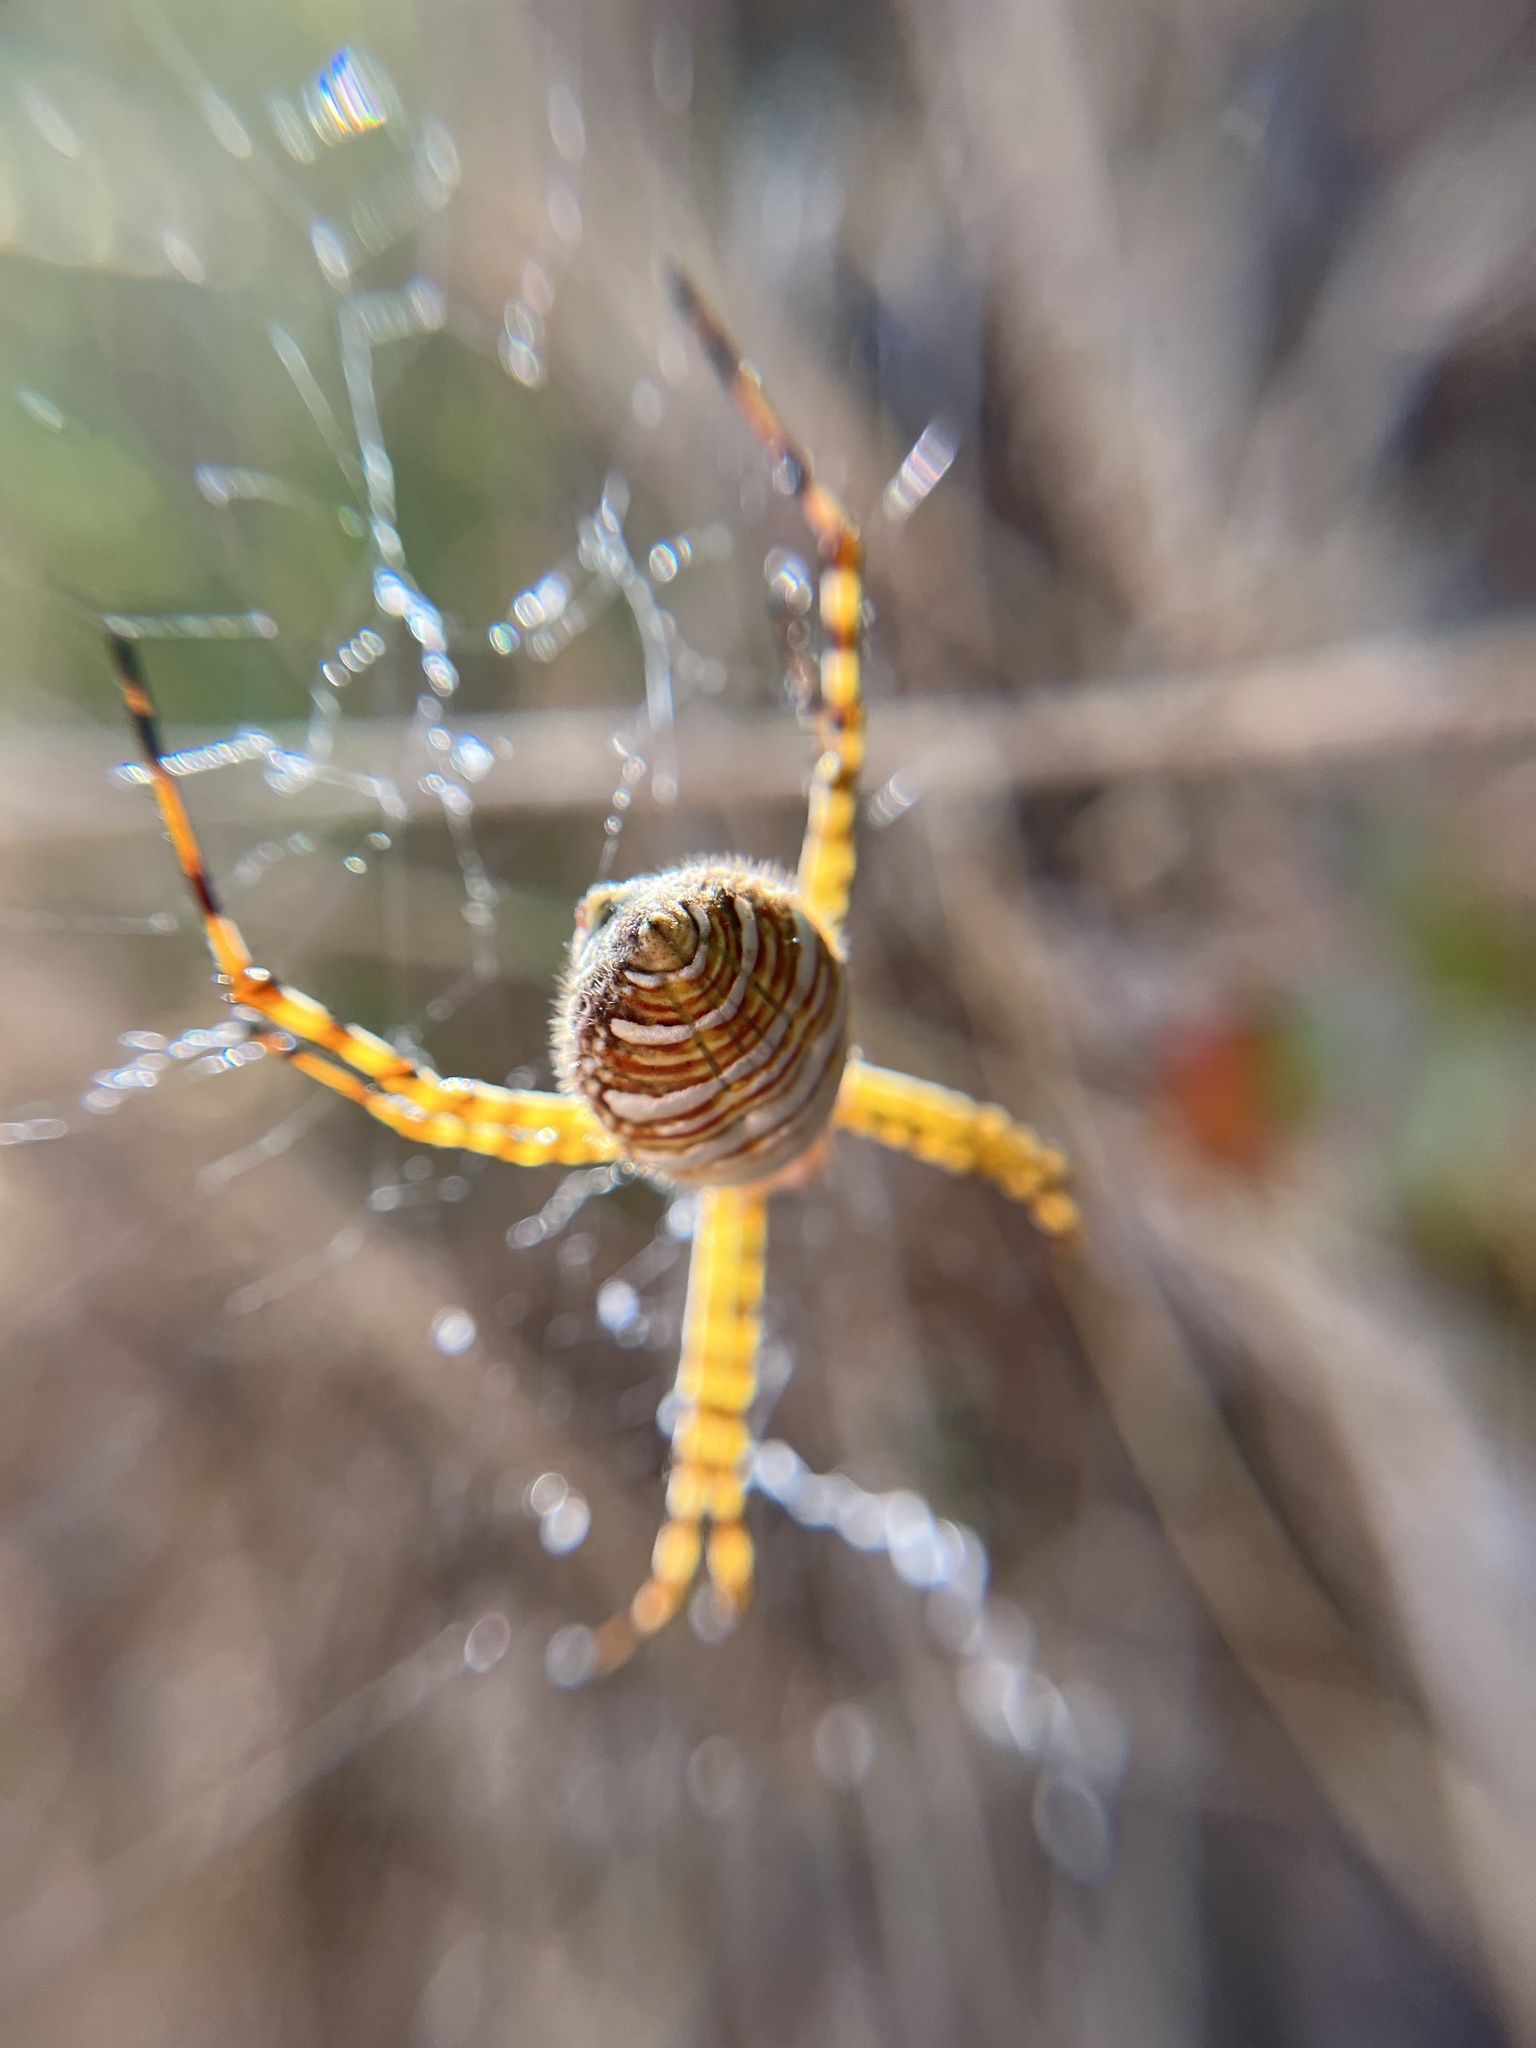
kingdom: Animalia
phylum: Arthropoda
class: Arachnida
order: Araneae
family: Araneidae
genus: Argiope
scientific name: Argiope trifasciata
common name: Banded garden spider
